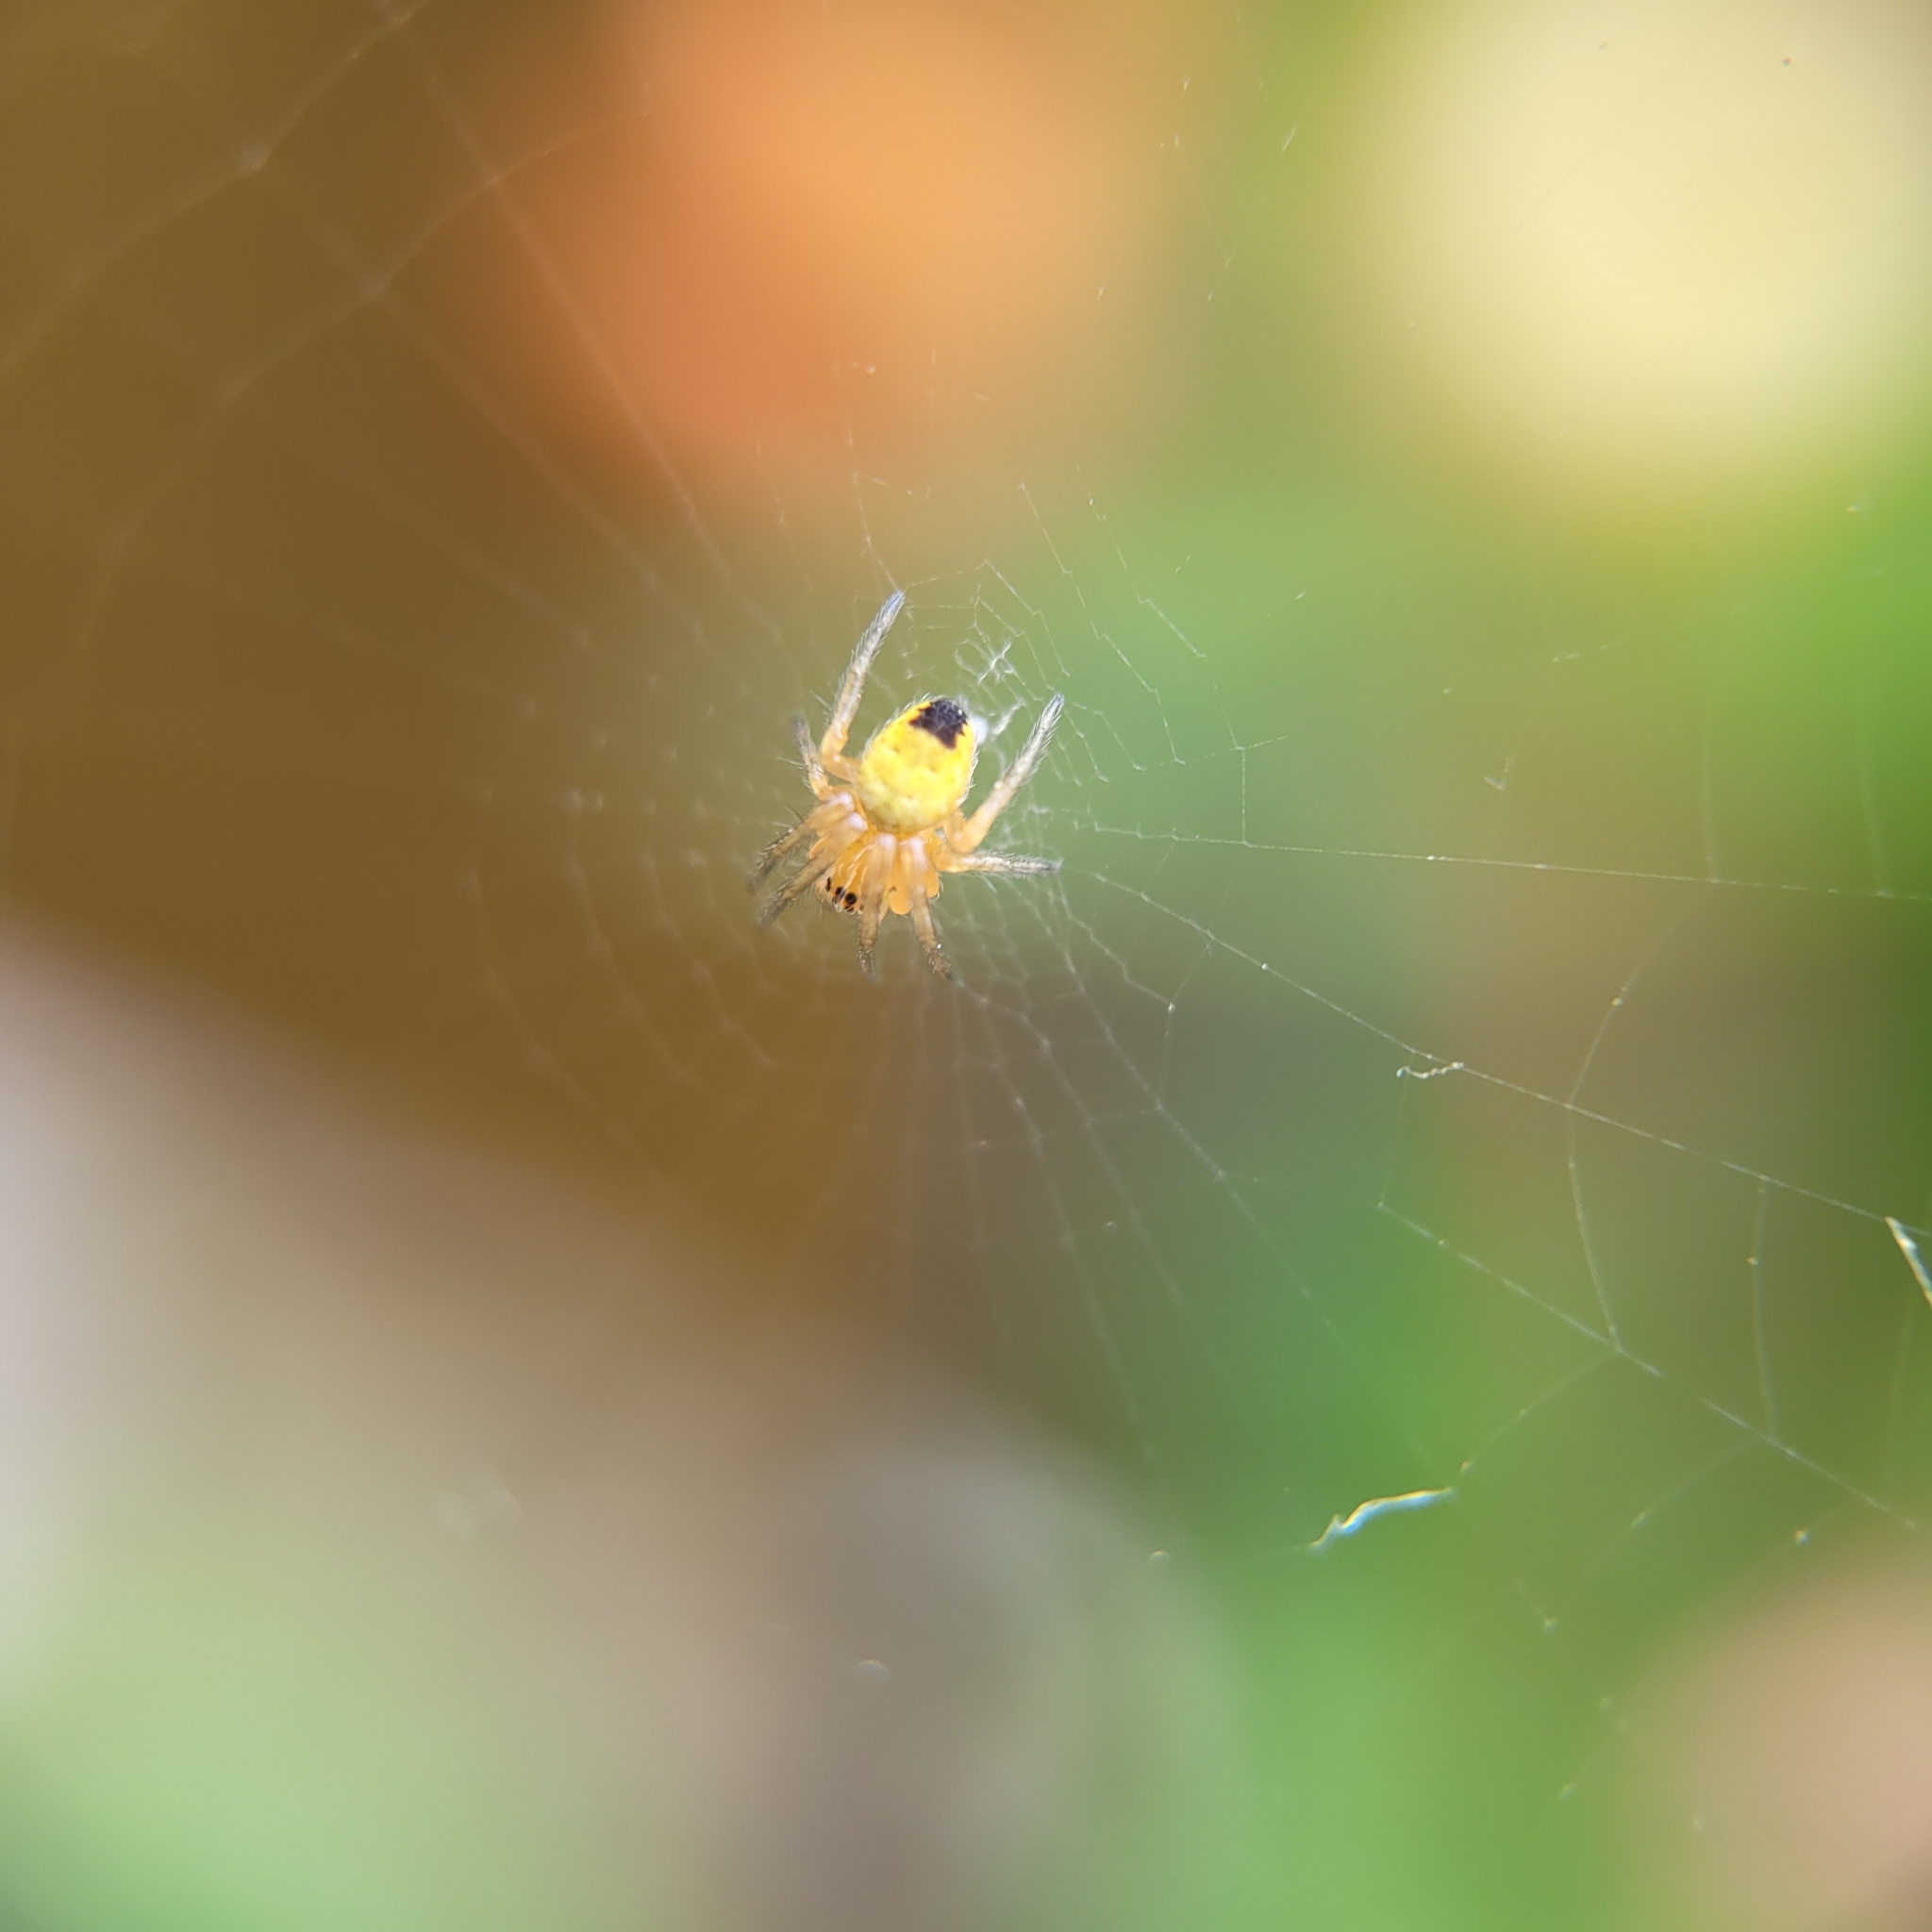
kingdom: Animalia
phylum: Arthropoda
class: Arachnida
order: Araneae
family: Araneidae
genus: Araneus
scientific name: Araneus diadematus
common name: Cross orbweaver
